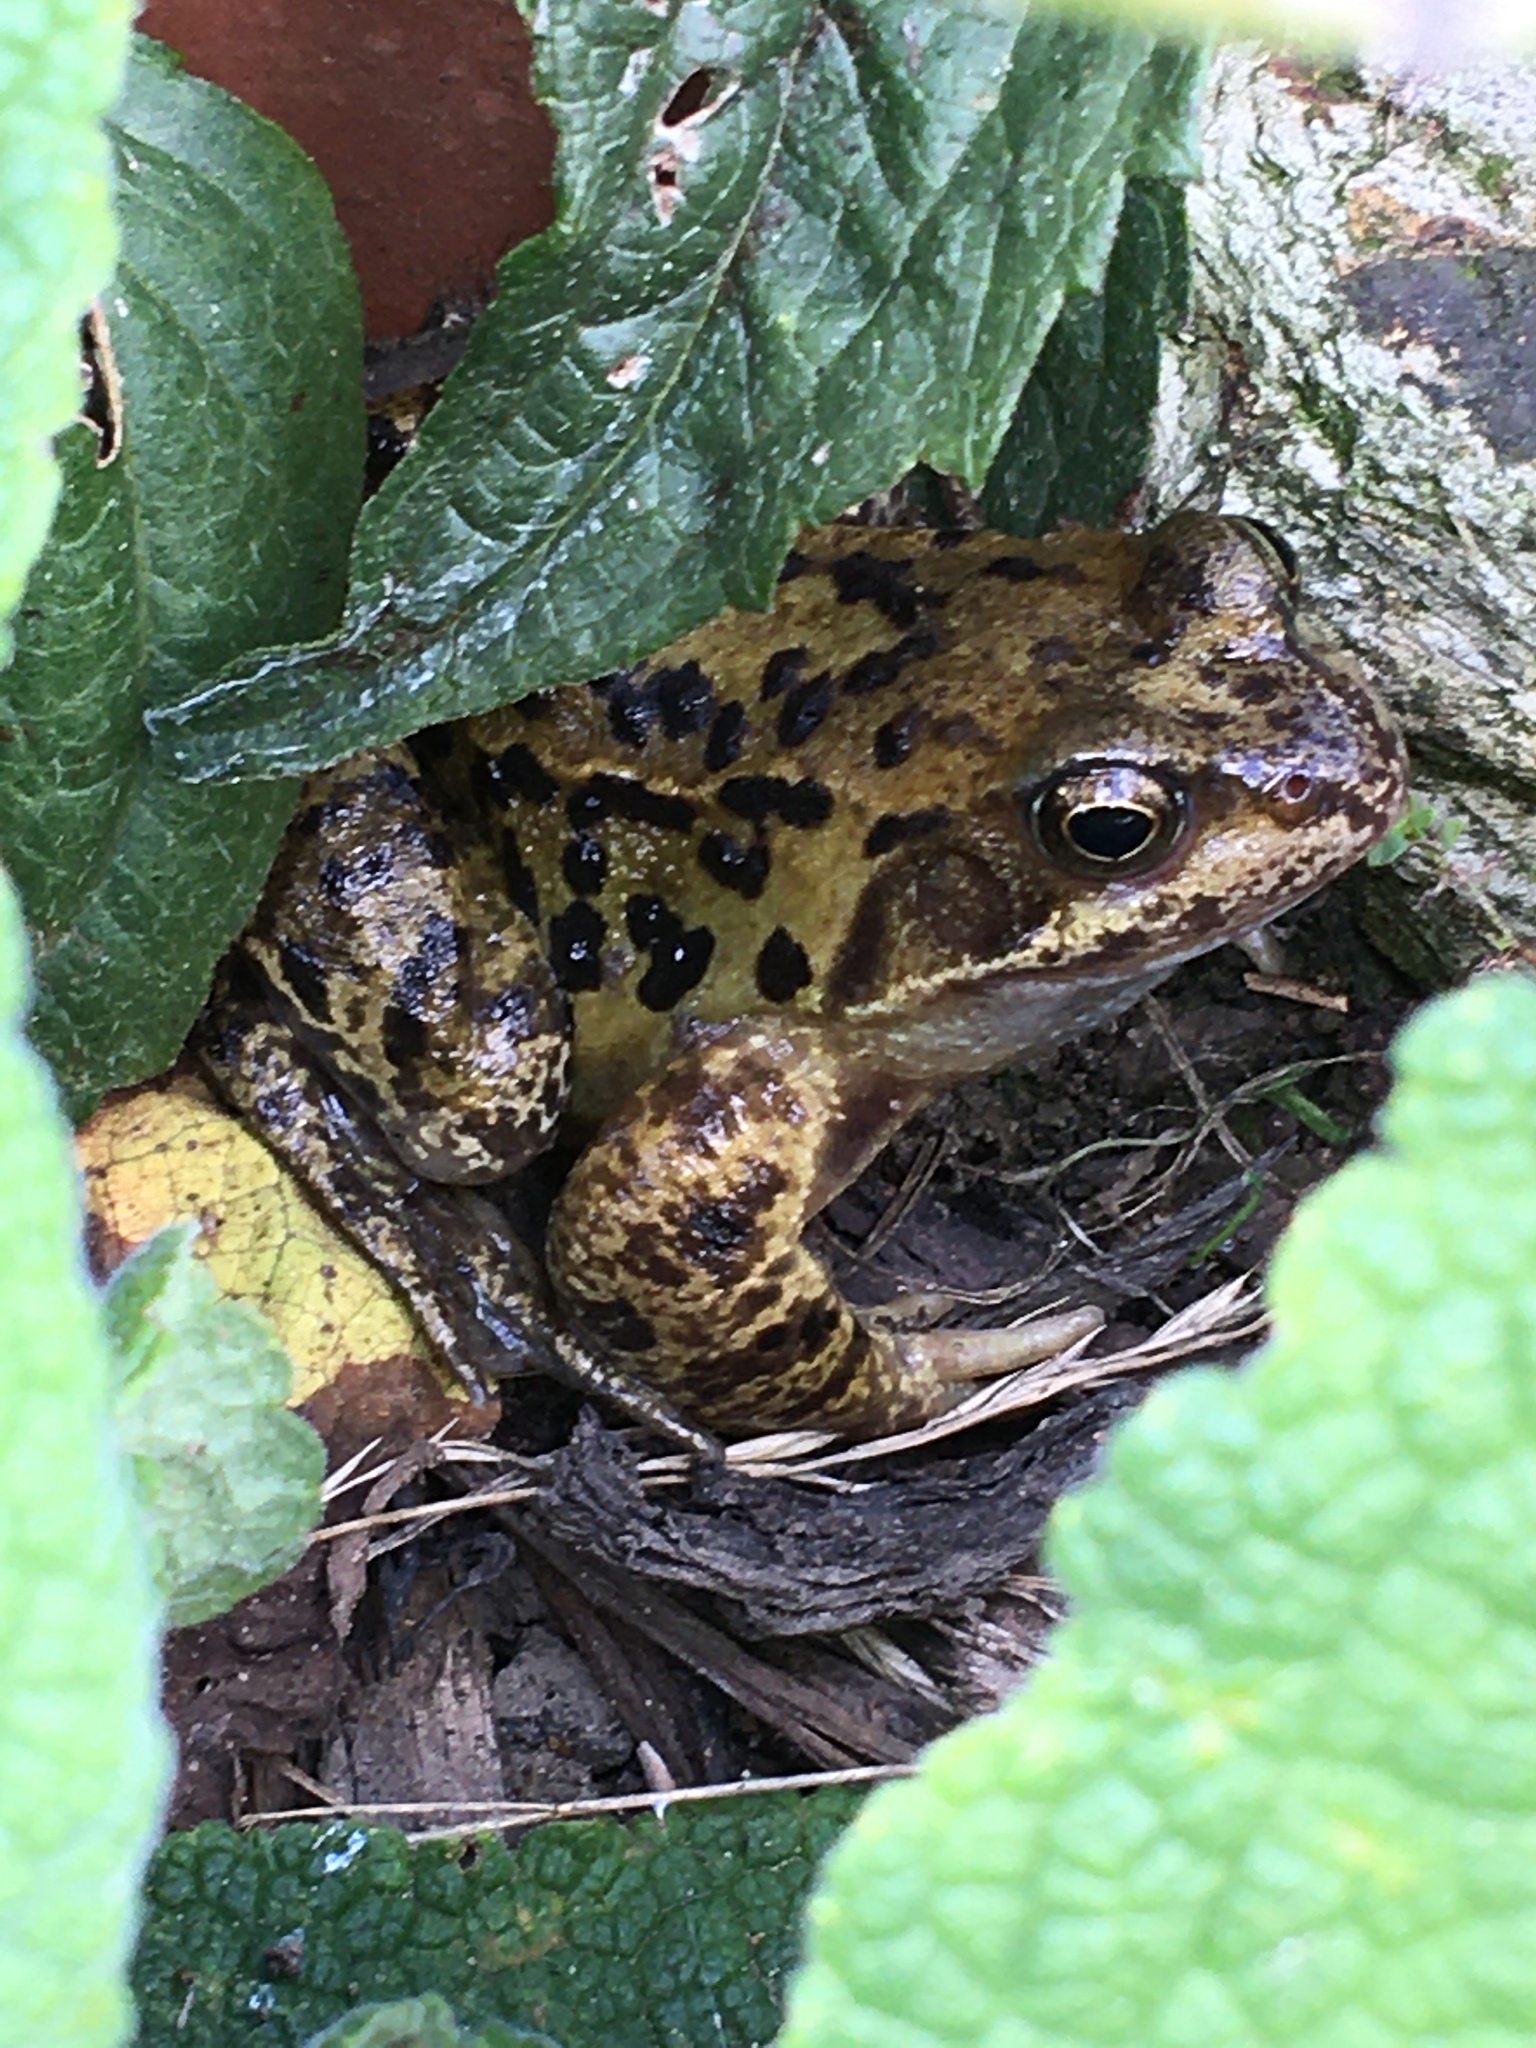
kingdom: Animalia
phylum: Chordata
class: Amphibia
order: Anura
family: Ranidae
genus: Rana
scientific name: Rana temporaria
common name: Common frog
